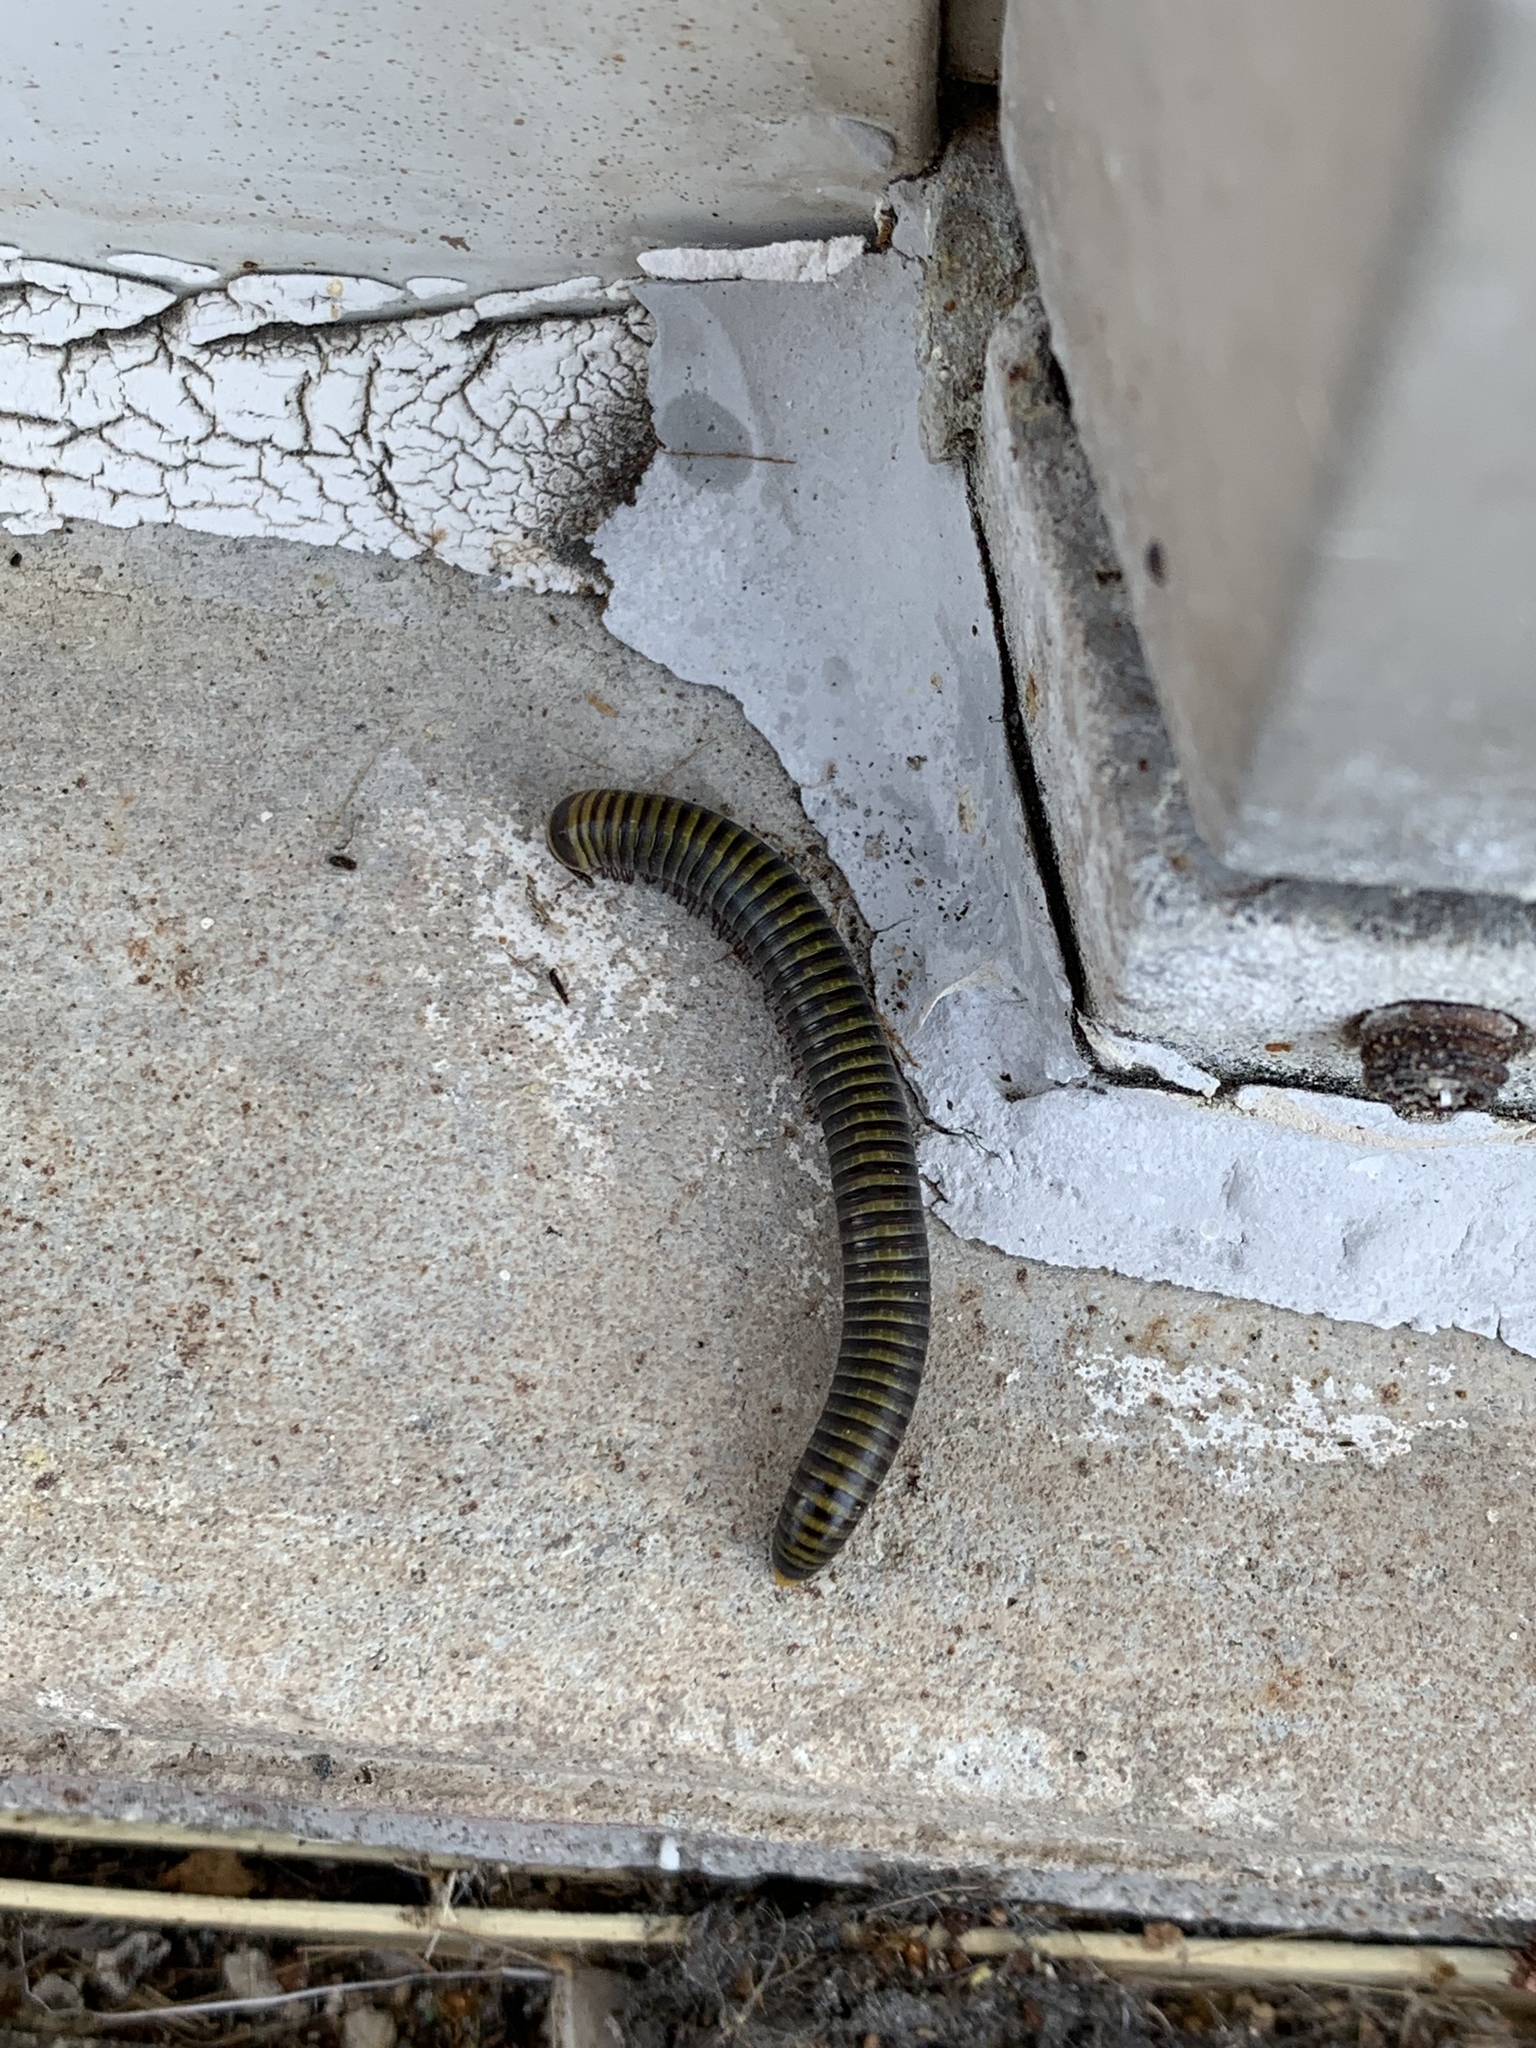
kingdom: Animalia
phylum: Arthropoda
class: Diplopoda
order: Spirobolida
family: Rhinocricidae
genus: Anadenobolus
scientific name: Anadenobolus monilicornis
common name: Caribbean millipede
